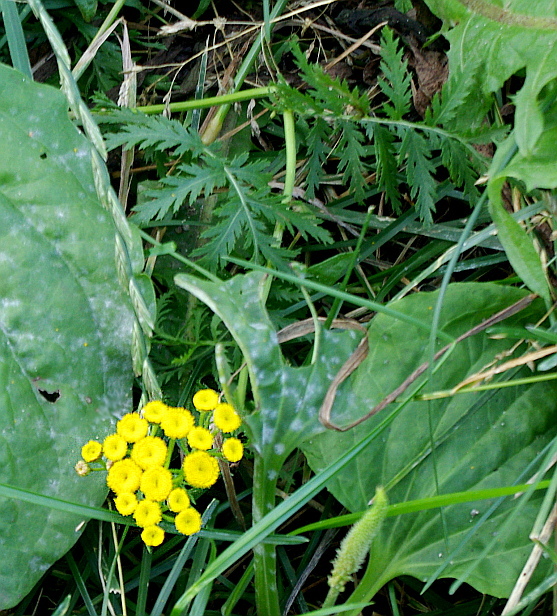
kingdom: Plantae
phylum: Tracheophyta
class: Magnoliopsida
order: Asterales
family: Asteraceae
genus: Tanacetum
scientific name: Tanacetum vulgare
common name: Common tansy
